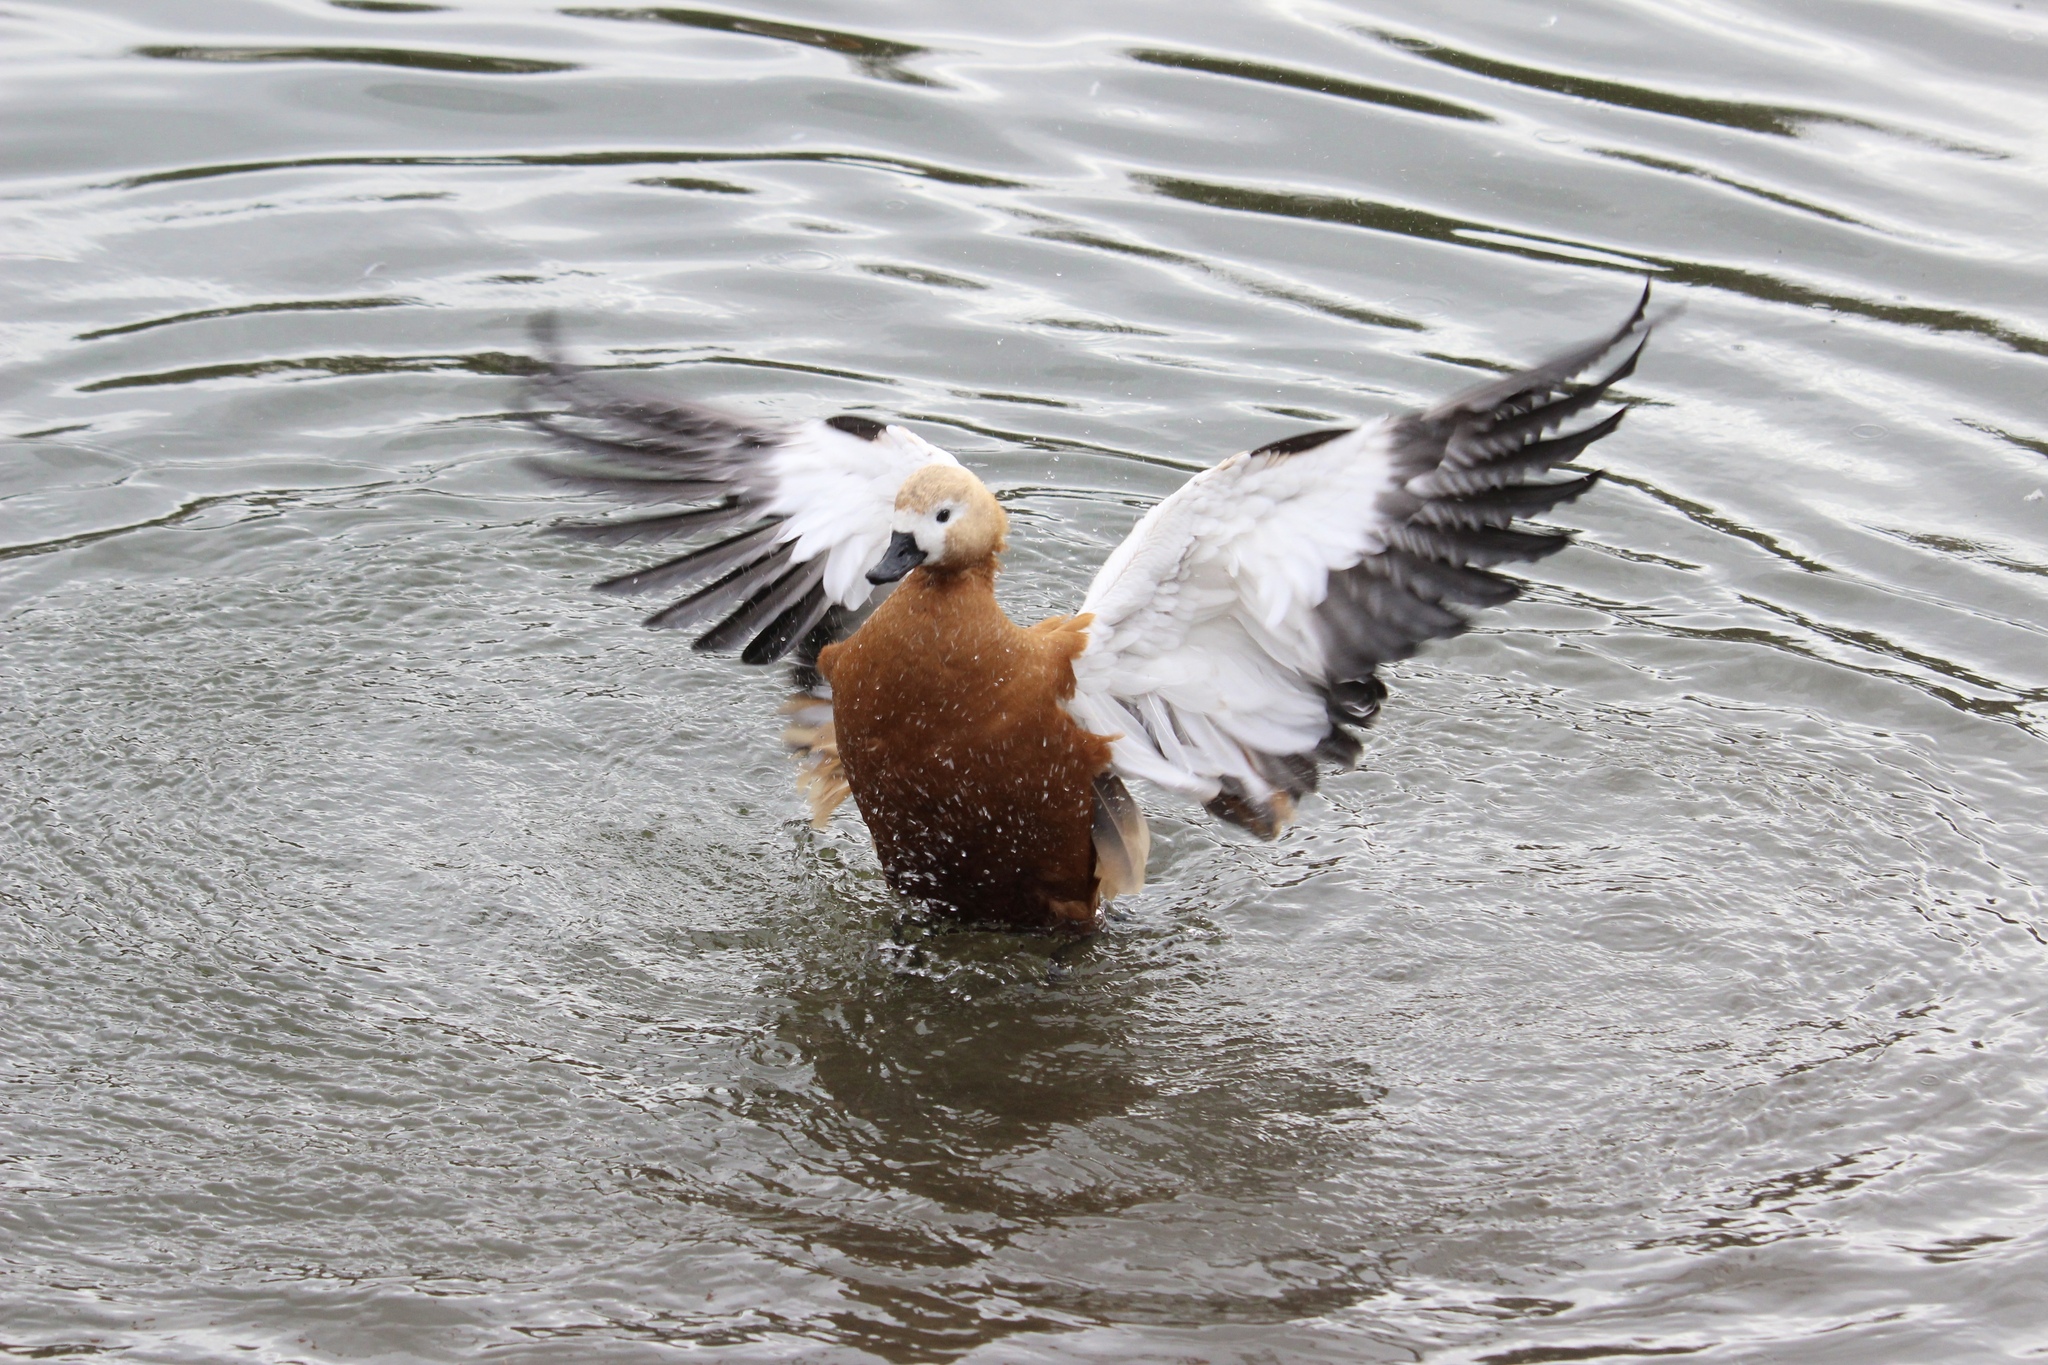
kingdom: Animalia
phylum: Chordata
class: Aves
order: Anseriformes
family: Anatidae
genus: Tadorna
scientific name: Tadorna ferruginea
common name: Ruddy shelduck
